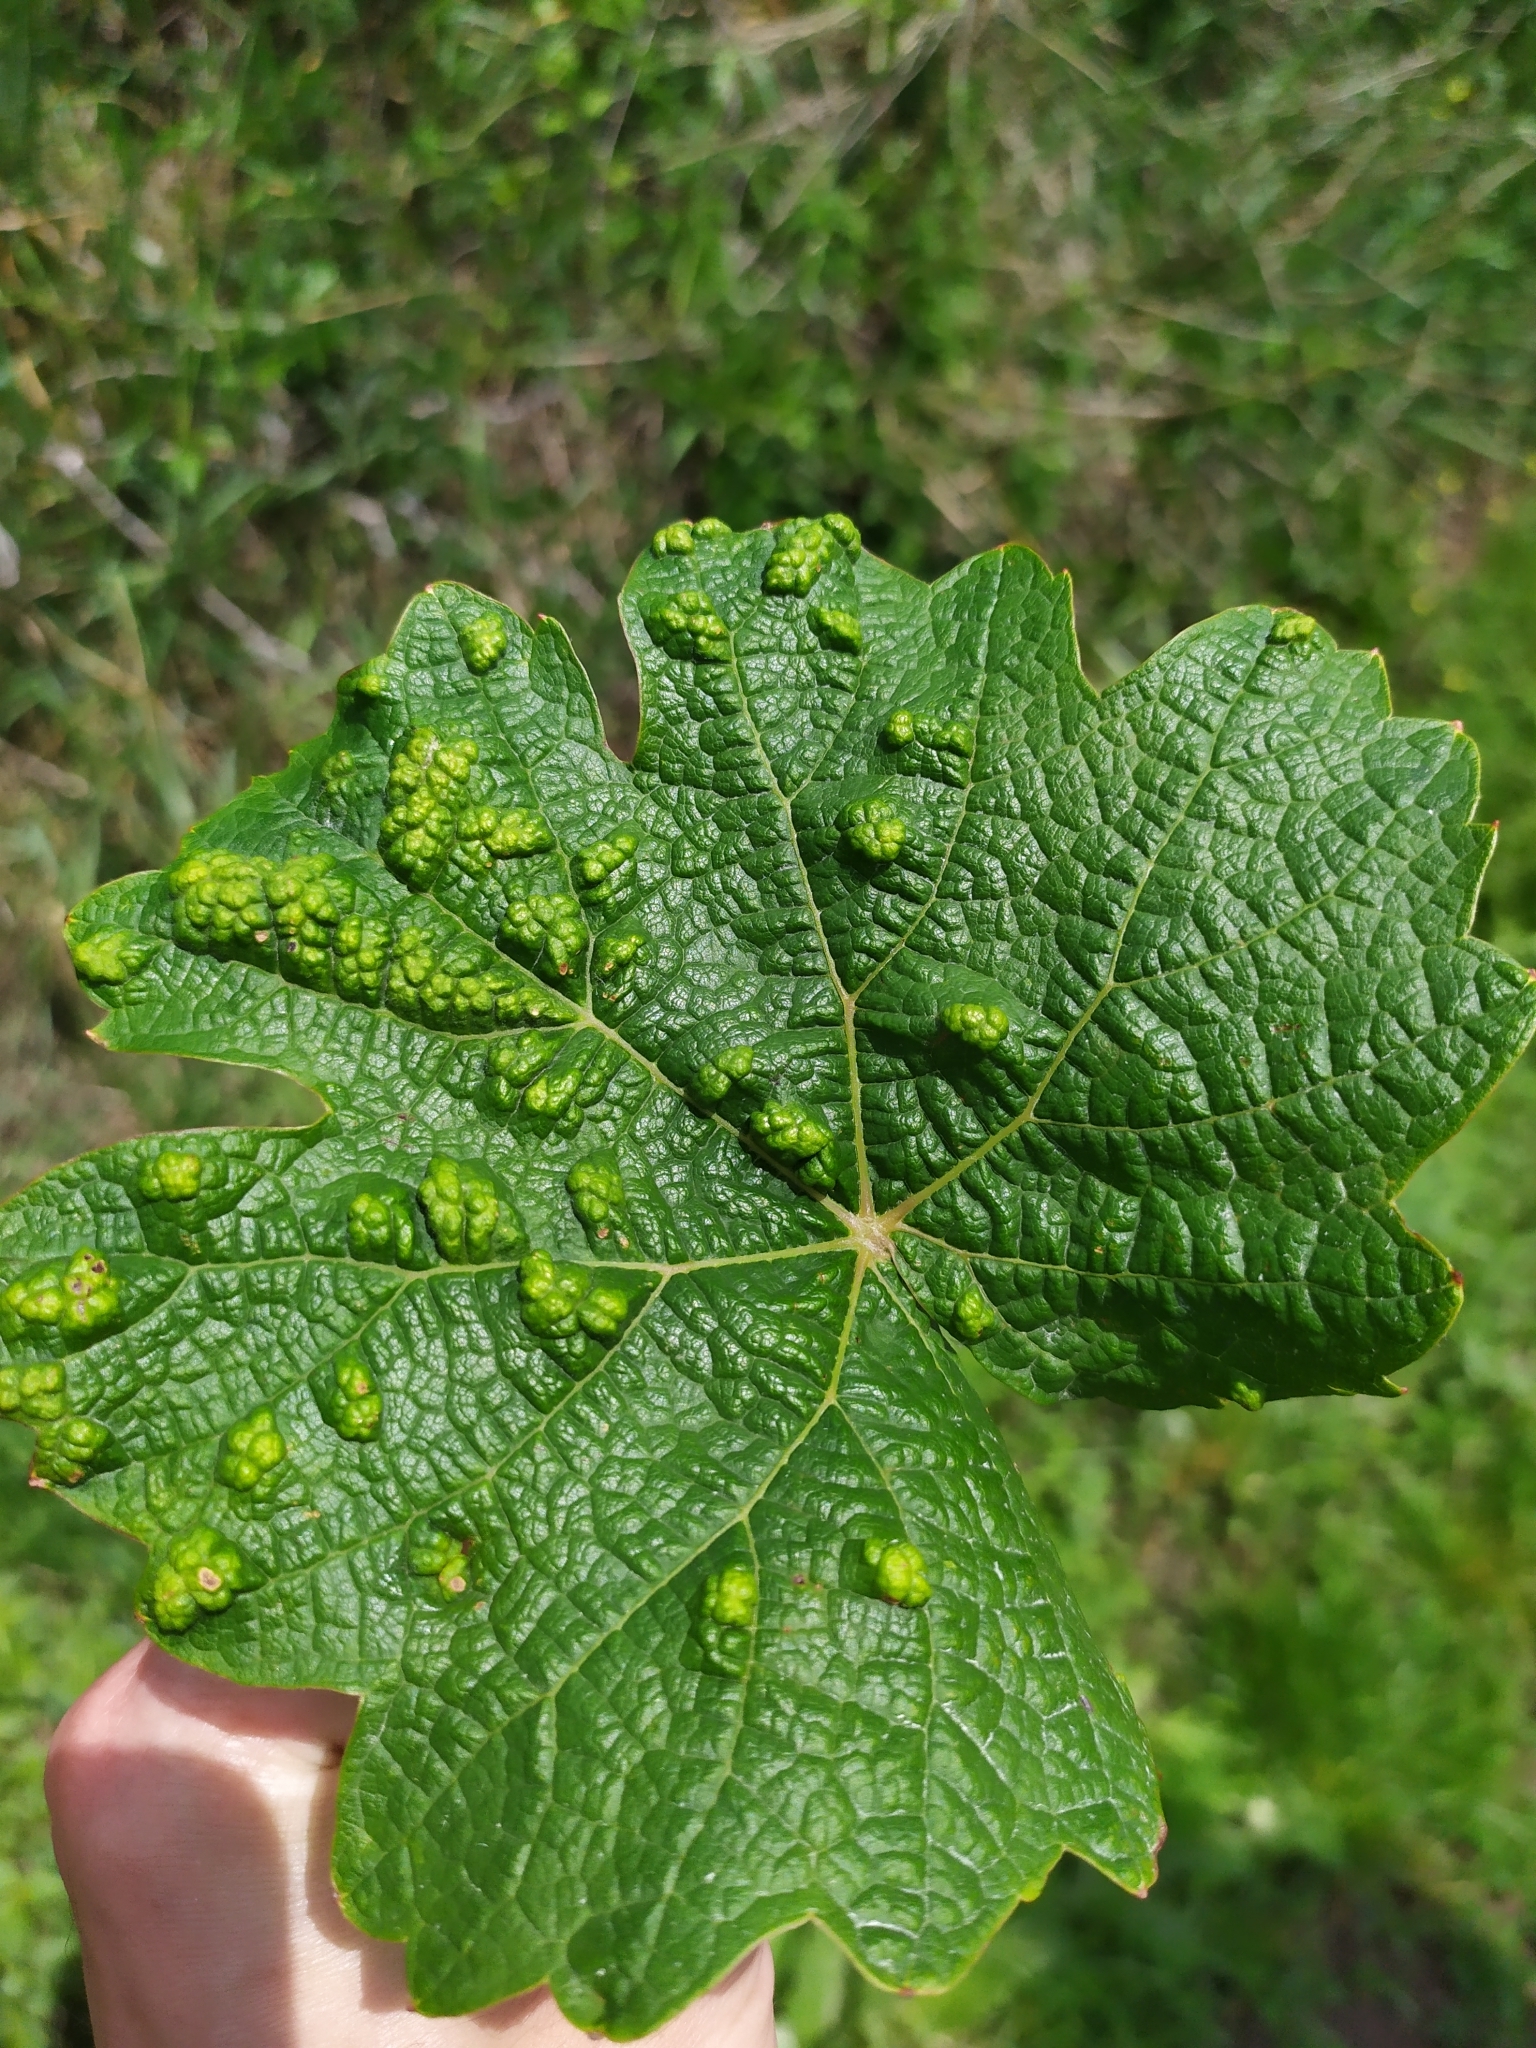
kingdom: Animalia
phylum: Arthropoda
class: Arachnida
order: Trombidiformes
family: Eriophyidae
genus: Colomerus
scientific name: Colomerus vitis
